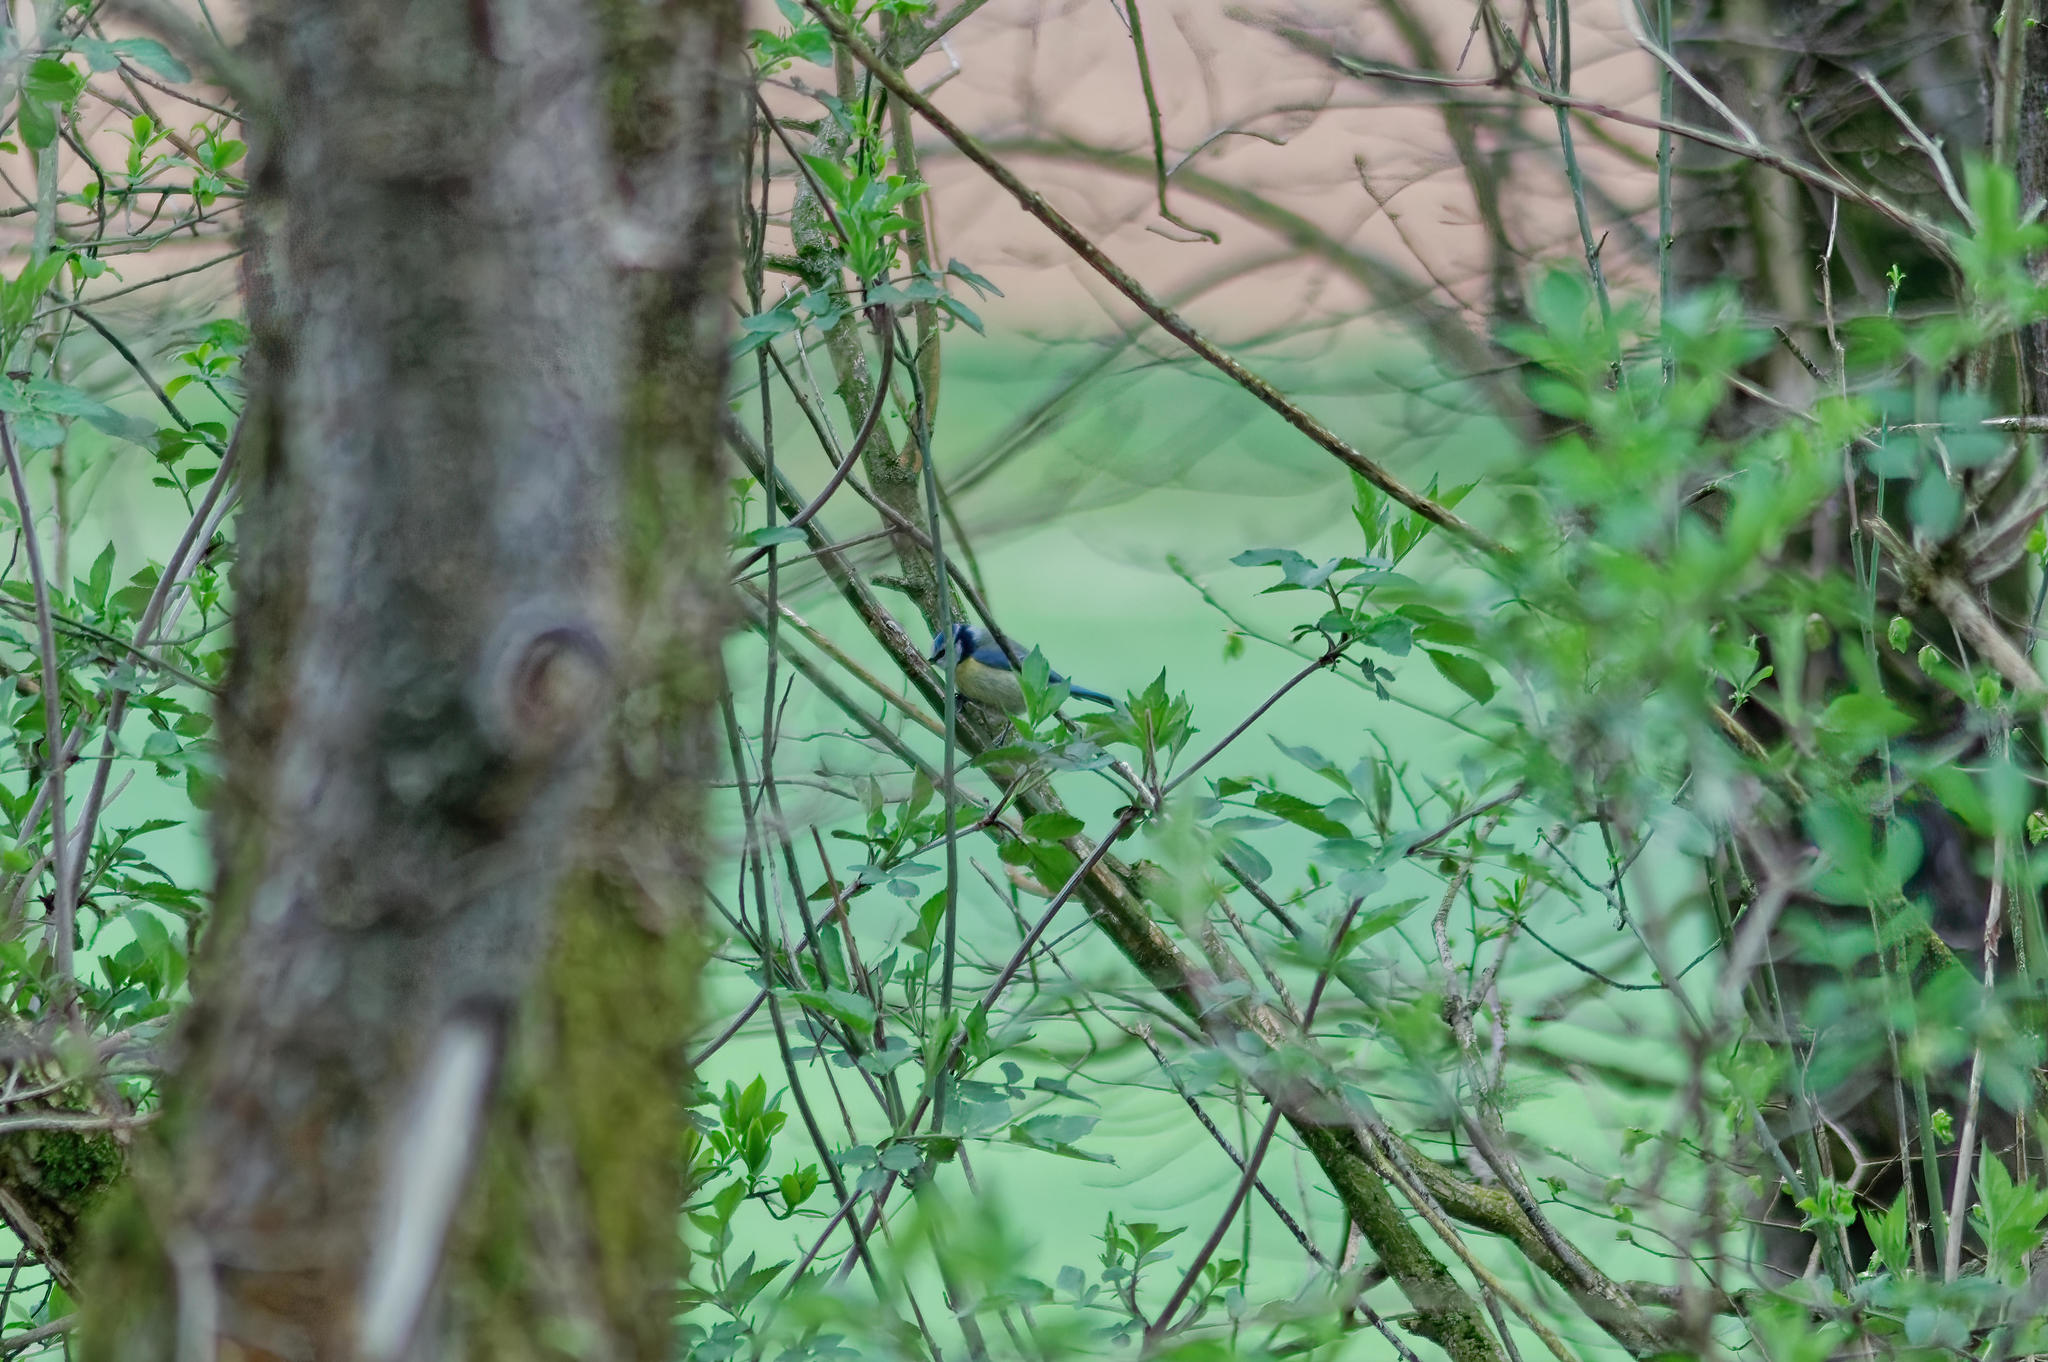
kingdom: Animalia
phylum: Chordata
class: Aves
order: Passeriformes
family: Paridae
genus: Cyanistes
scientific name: Cyanistes caeruleus
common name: Eurasian blue tit
